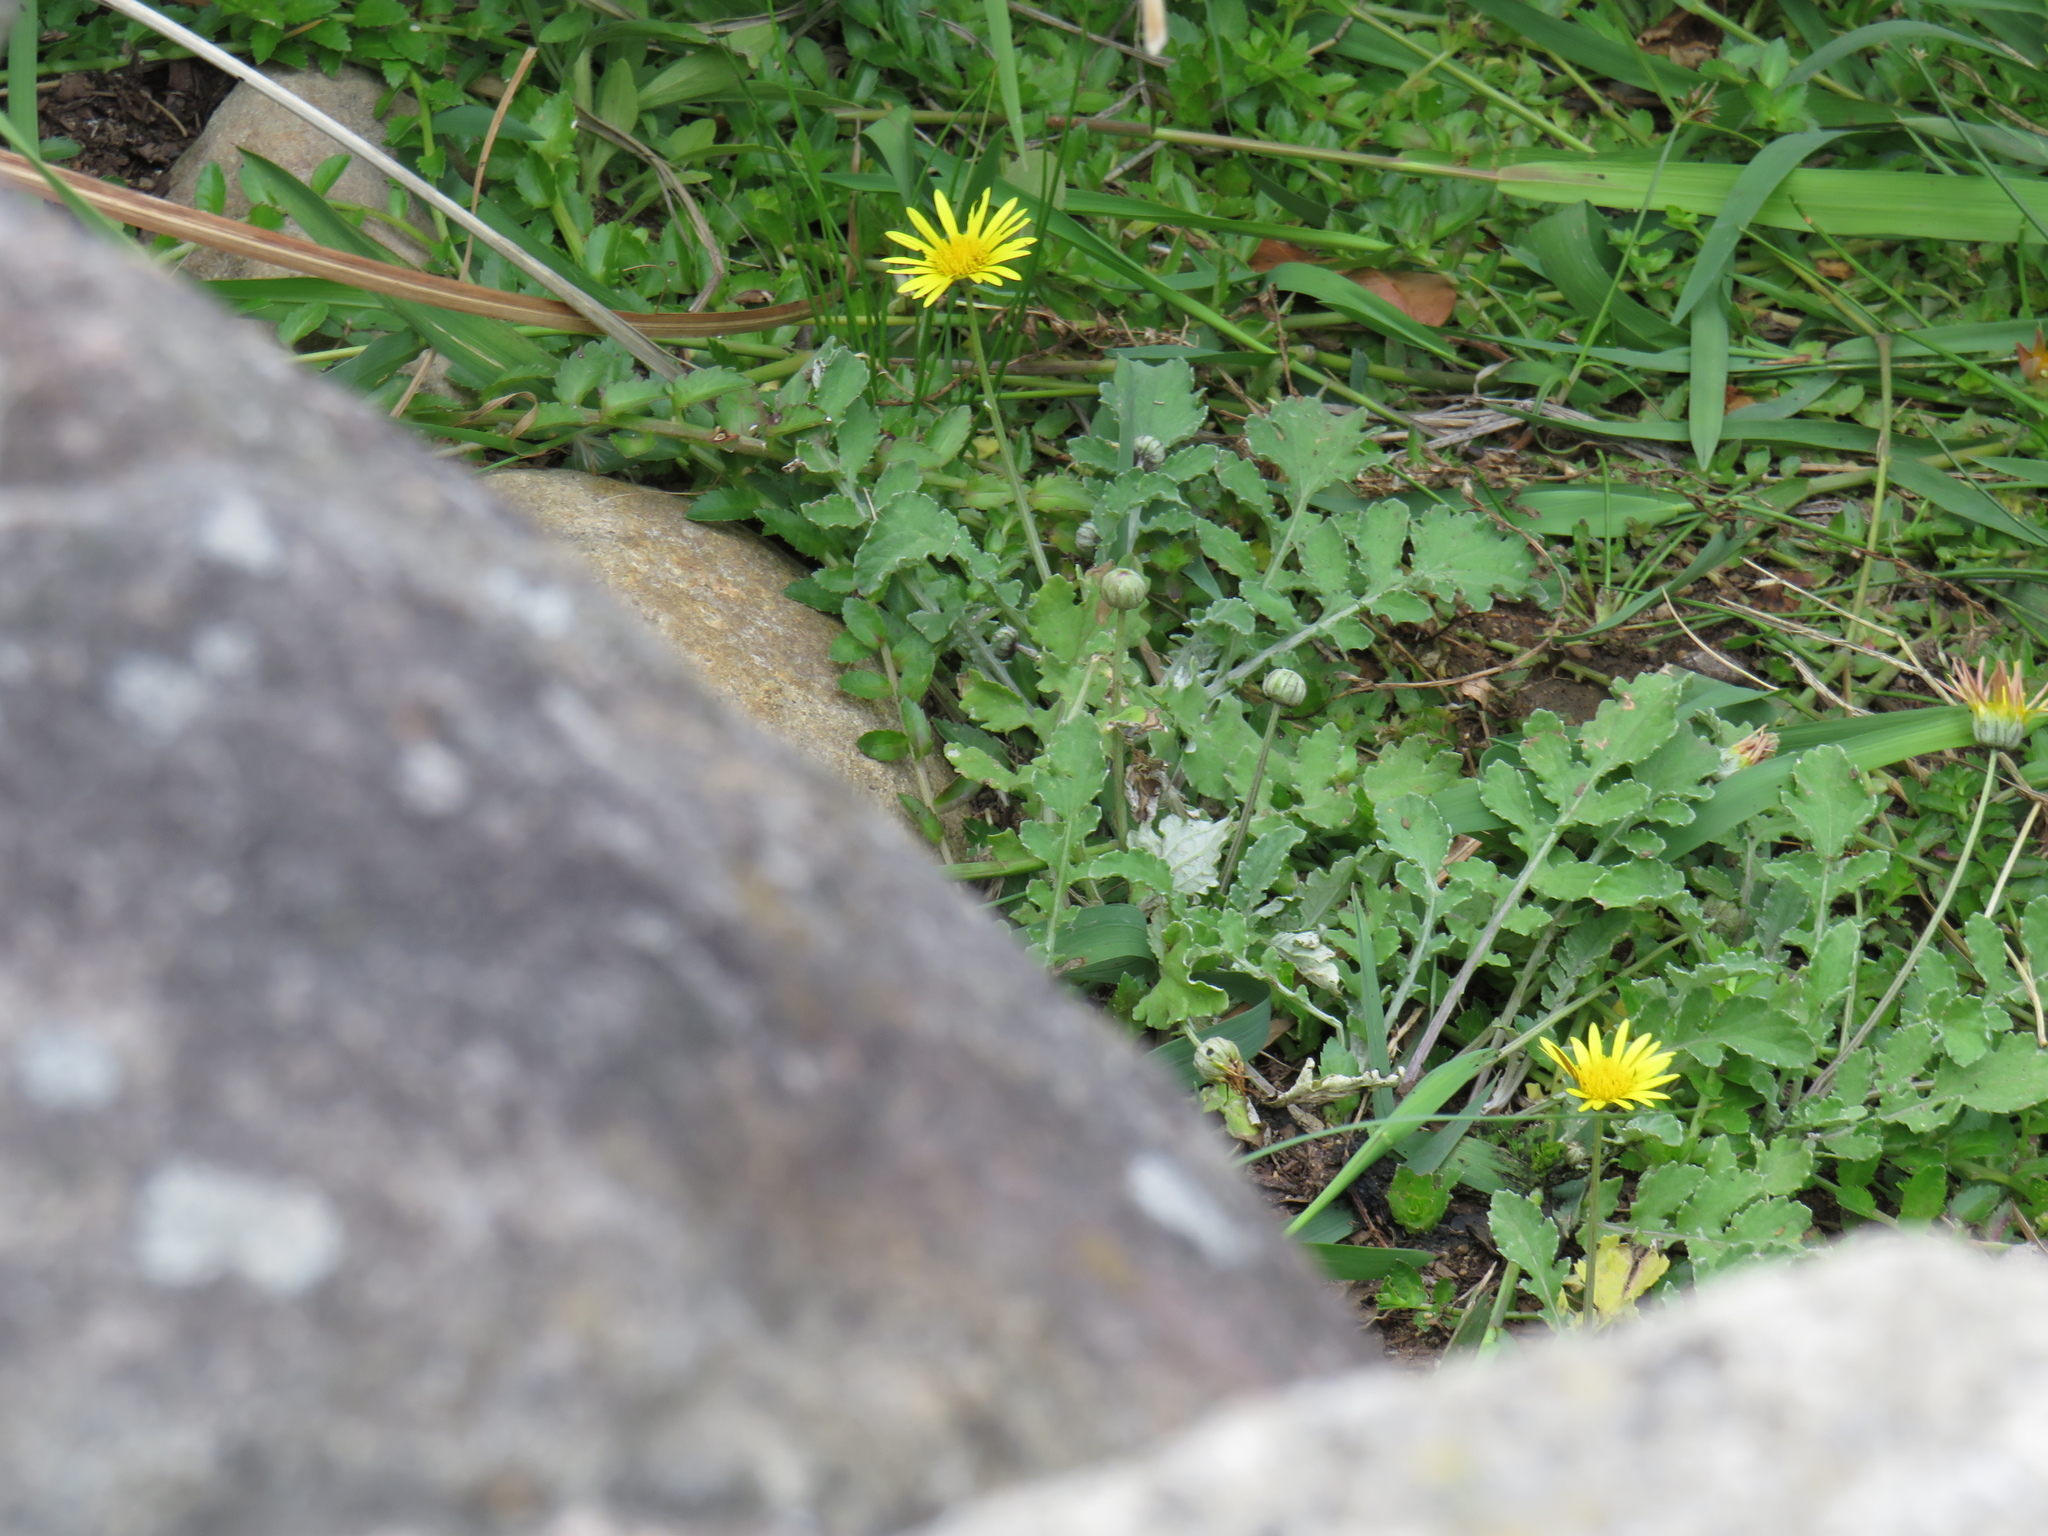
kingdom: Plantae
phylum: Tracheophyta
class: Magnoliopsida
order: Asterales
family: Asteraceae
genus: Arctotheca
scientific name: Arctotheca prostrata
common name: Capeweed
